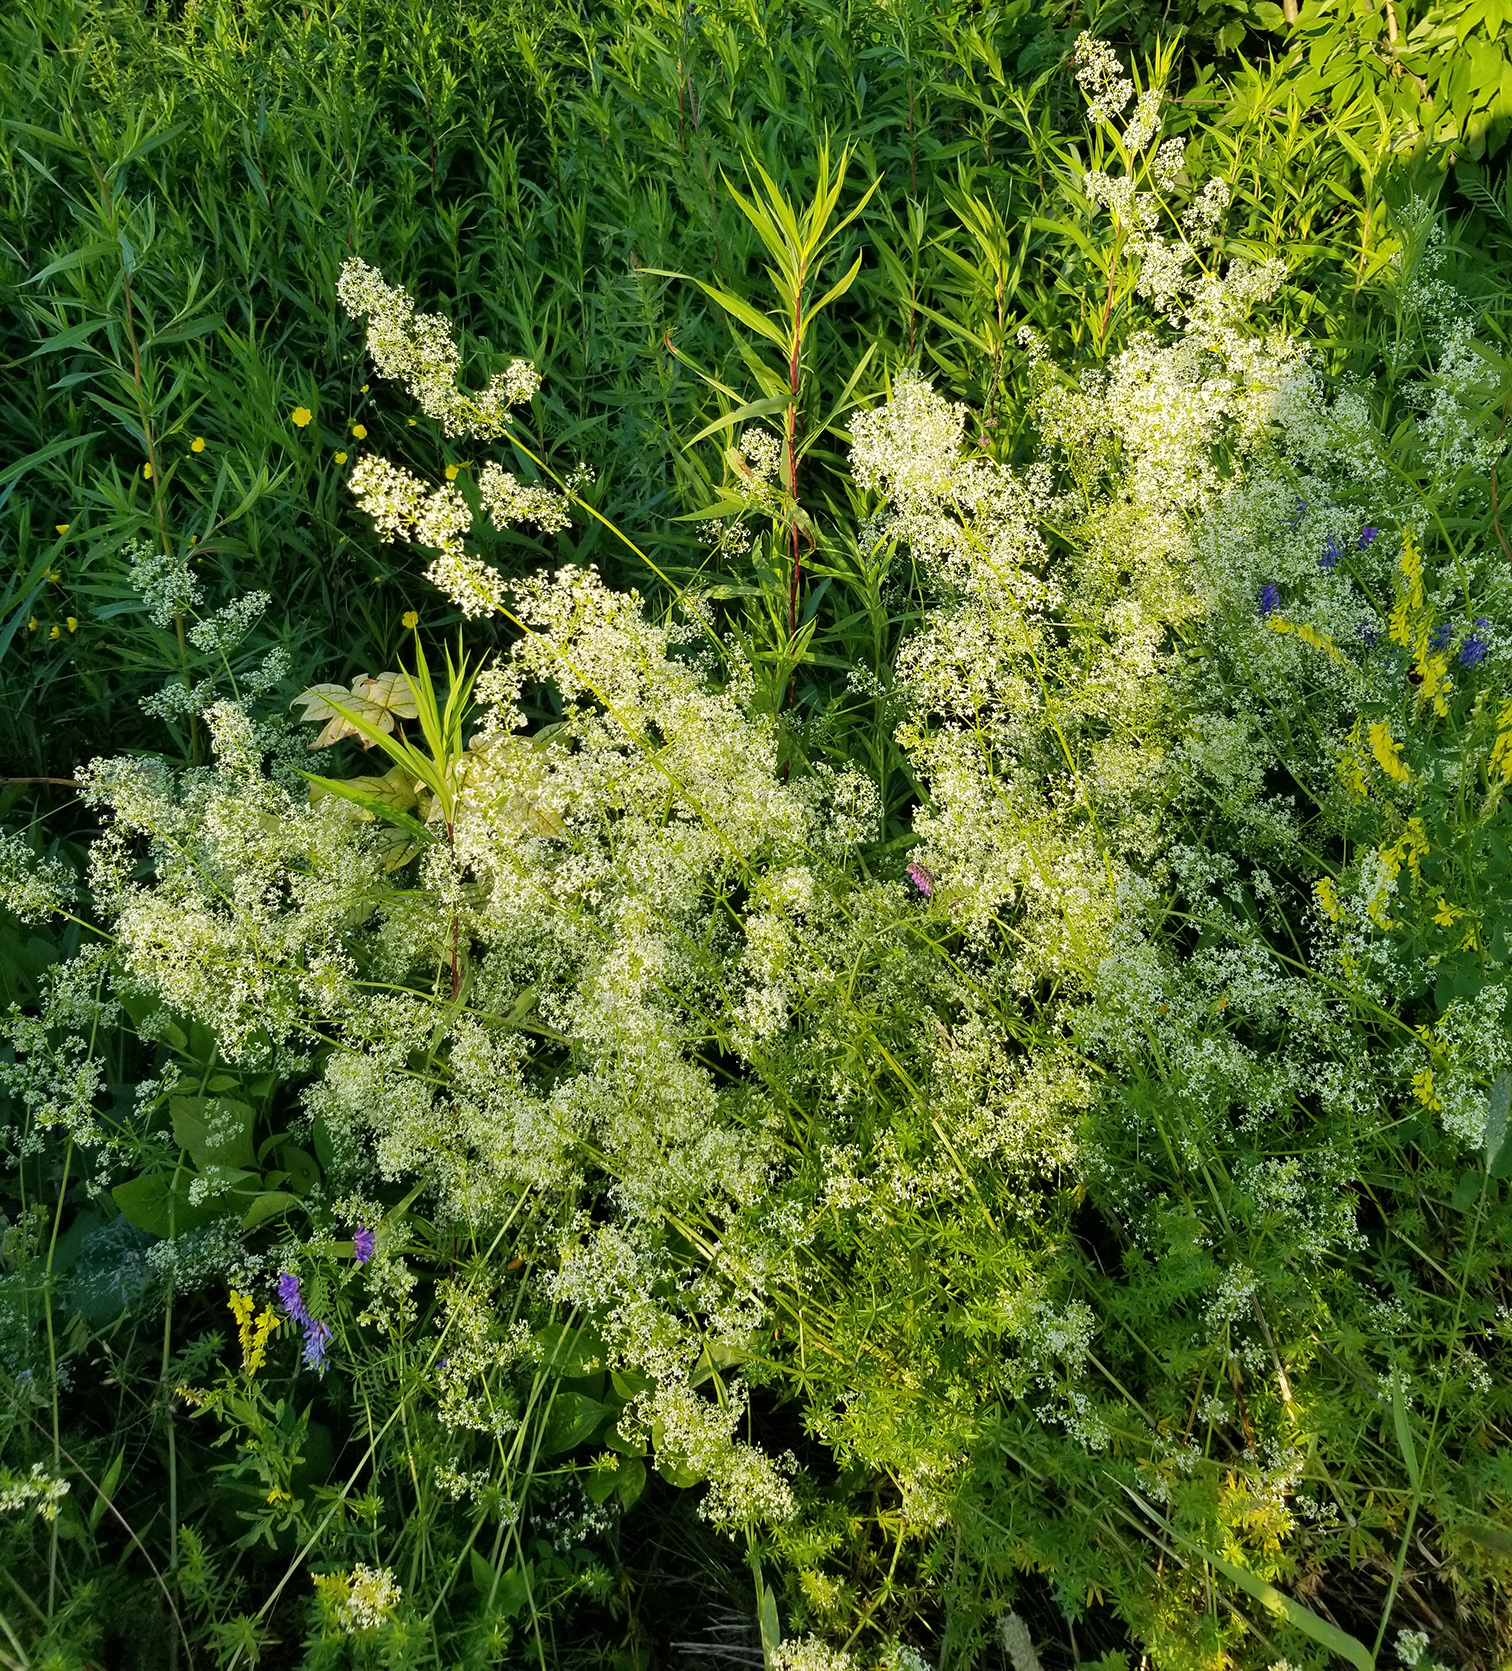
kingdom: Plantae
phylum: Tracheophyta
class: Magnoliopsida
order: Gentianales
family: Rubiaceae
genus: Galium
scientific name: Galium mollugo
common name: Hedge bedstraw
